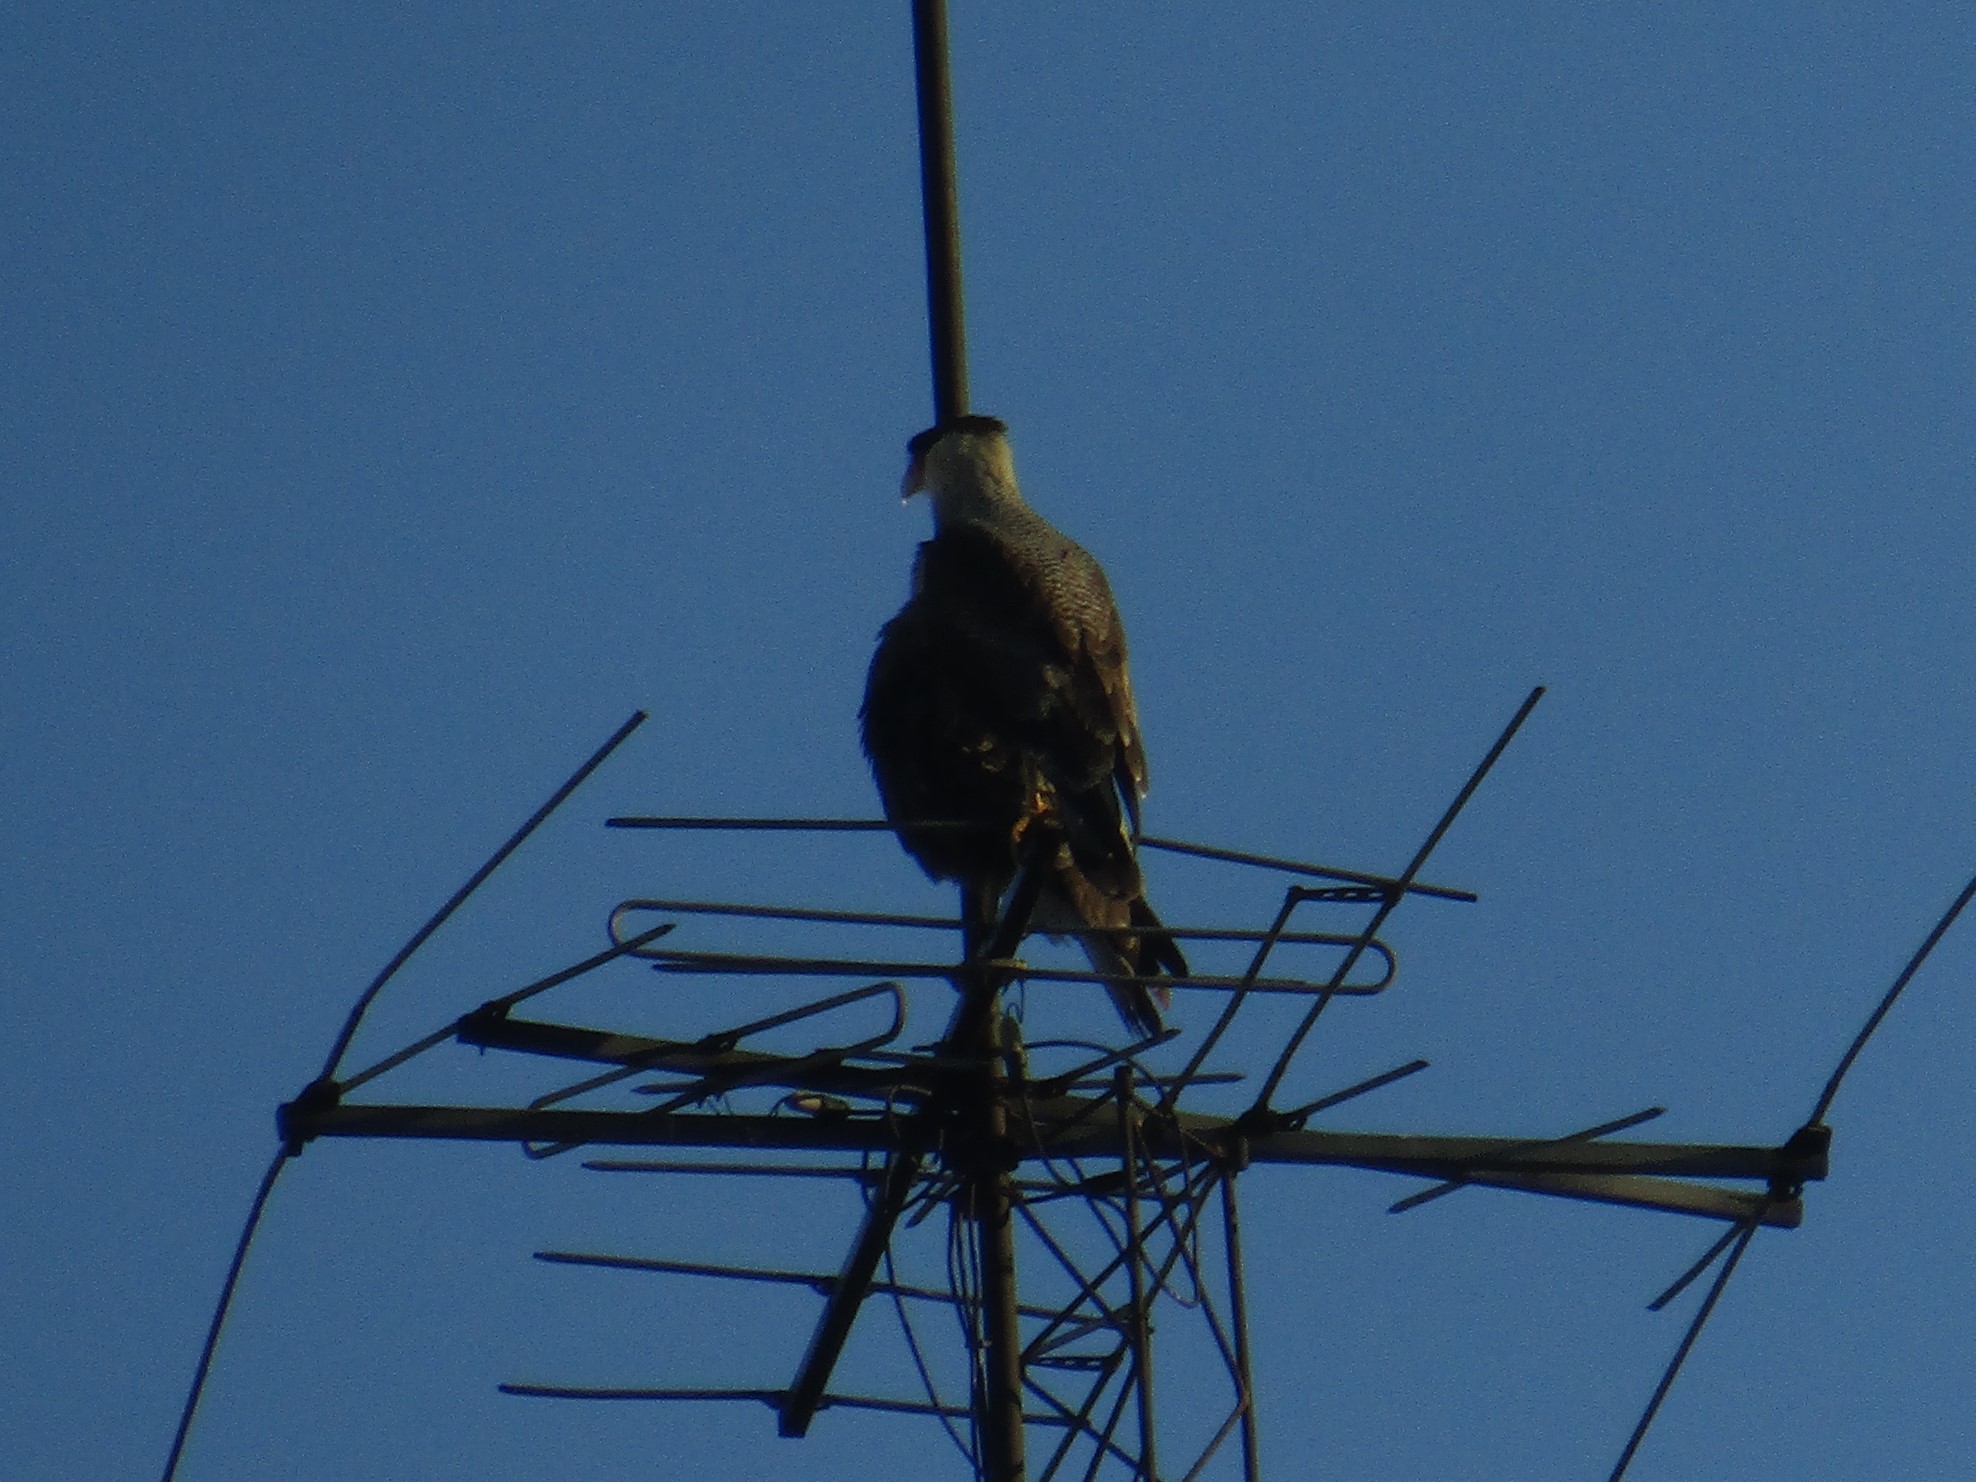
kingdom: Animalia
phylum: Chordata
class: Aves
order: Falconiformes
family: Falconidae
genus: Caracara
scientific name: Caracara plancus
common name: Southern caracara
